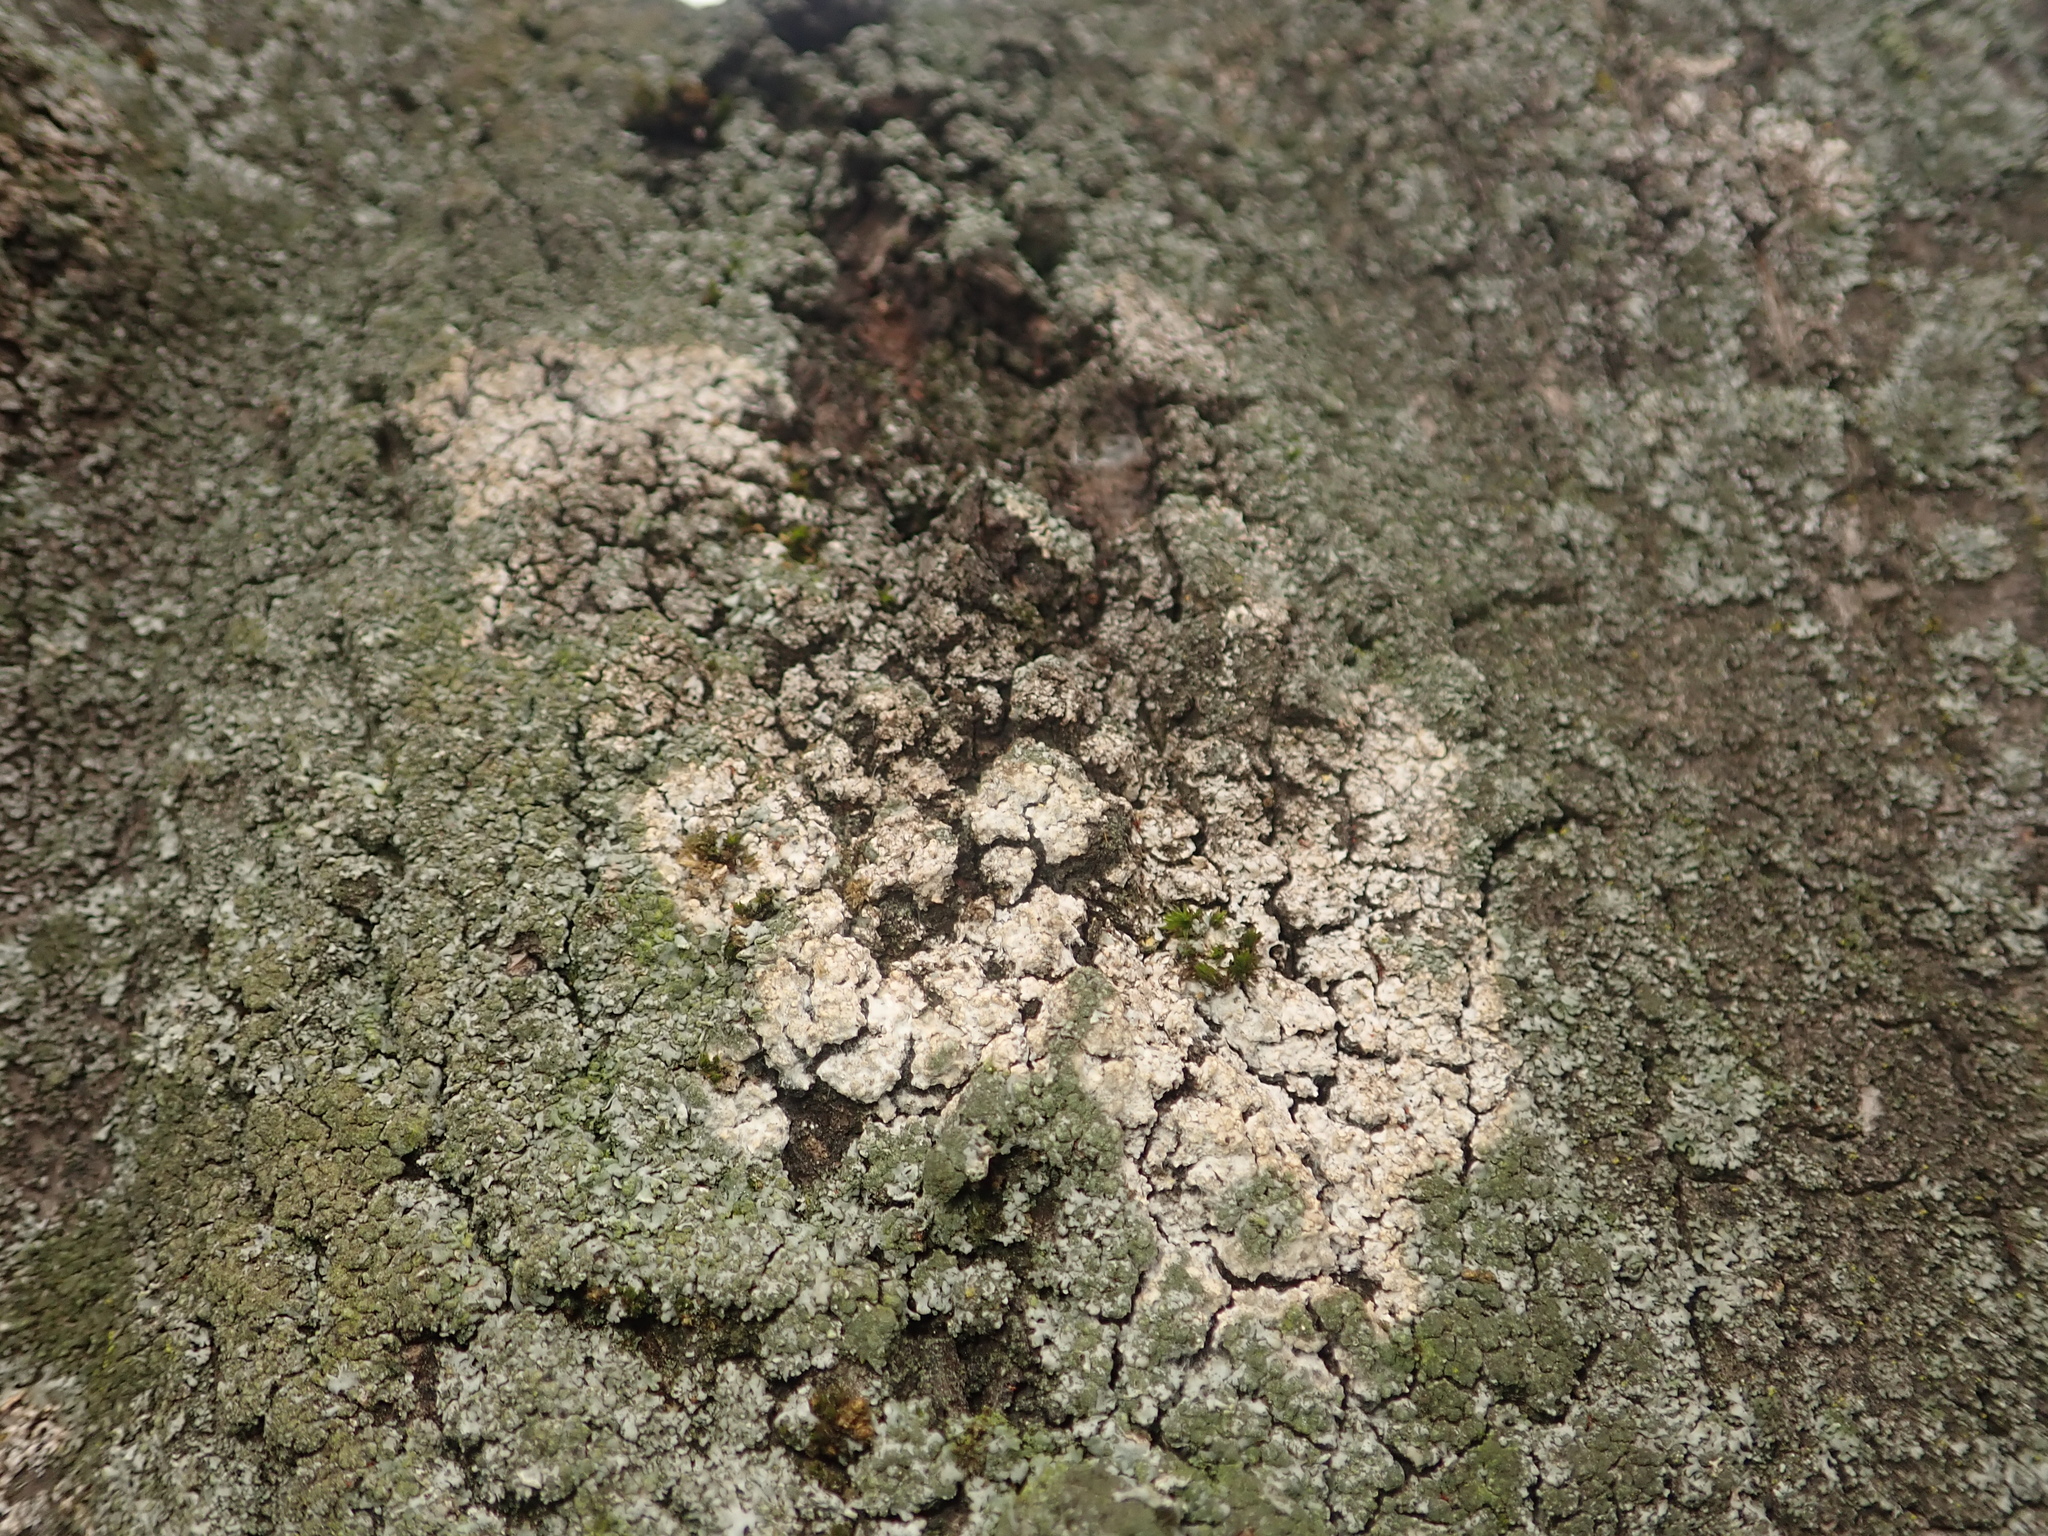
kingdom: Fungi
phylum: Basidiomycota
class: Agaricomycetes
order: Atheliales
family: Atheliaceae
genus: Athelia
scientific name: Athelia arachnoidea
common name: Candelabra duster
